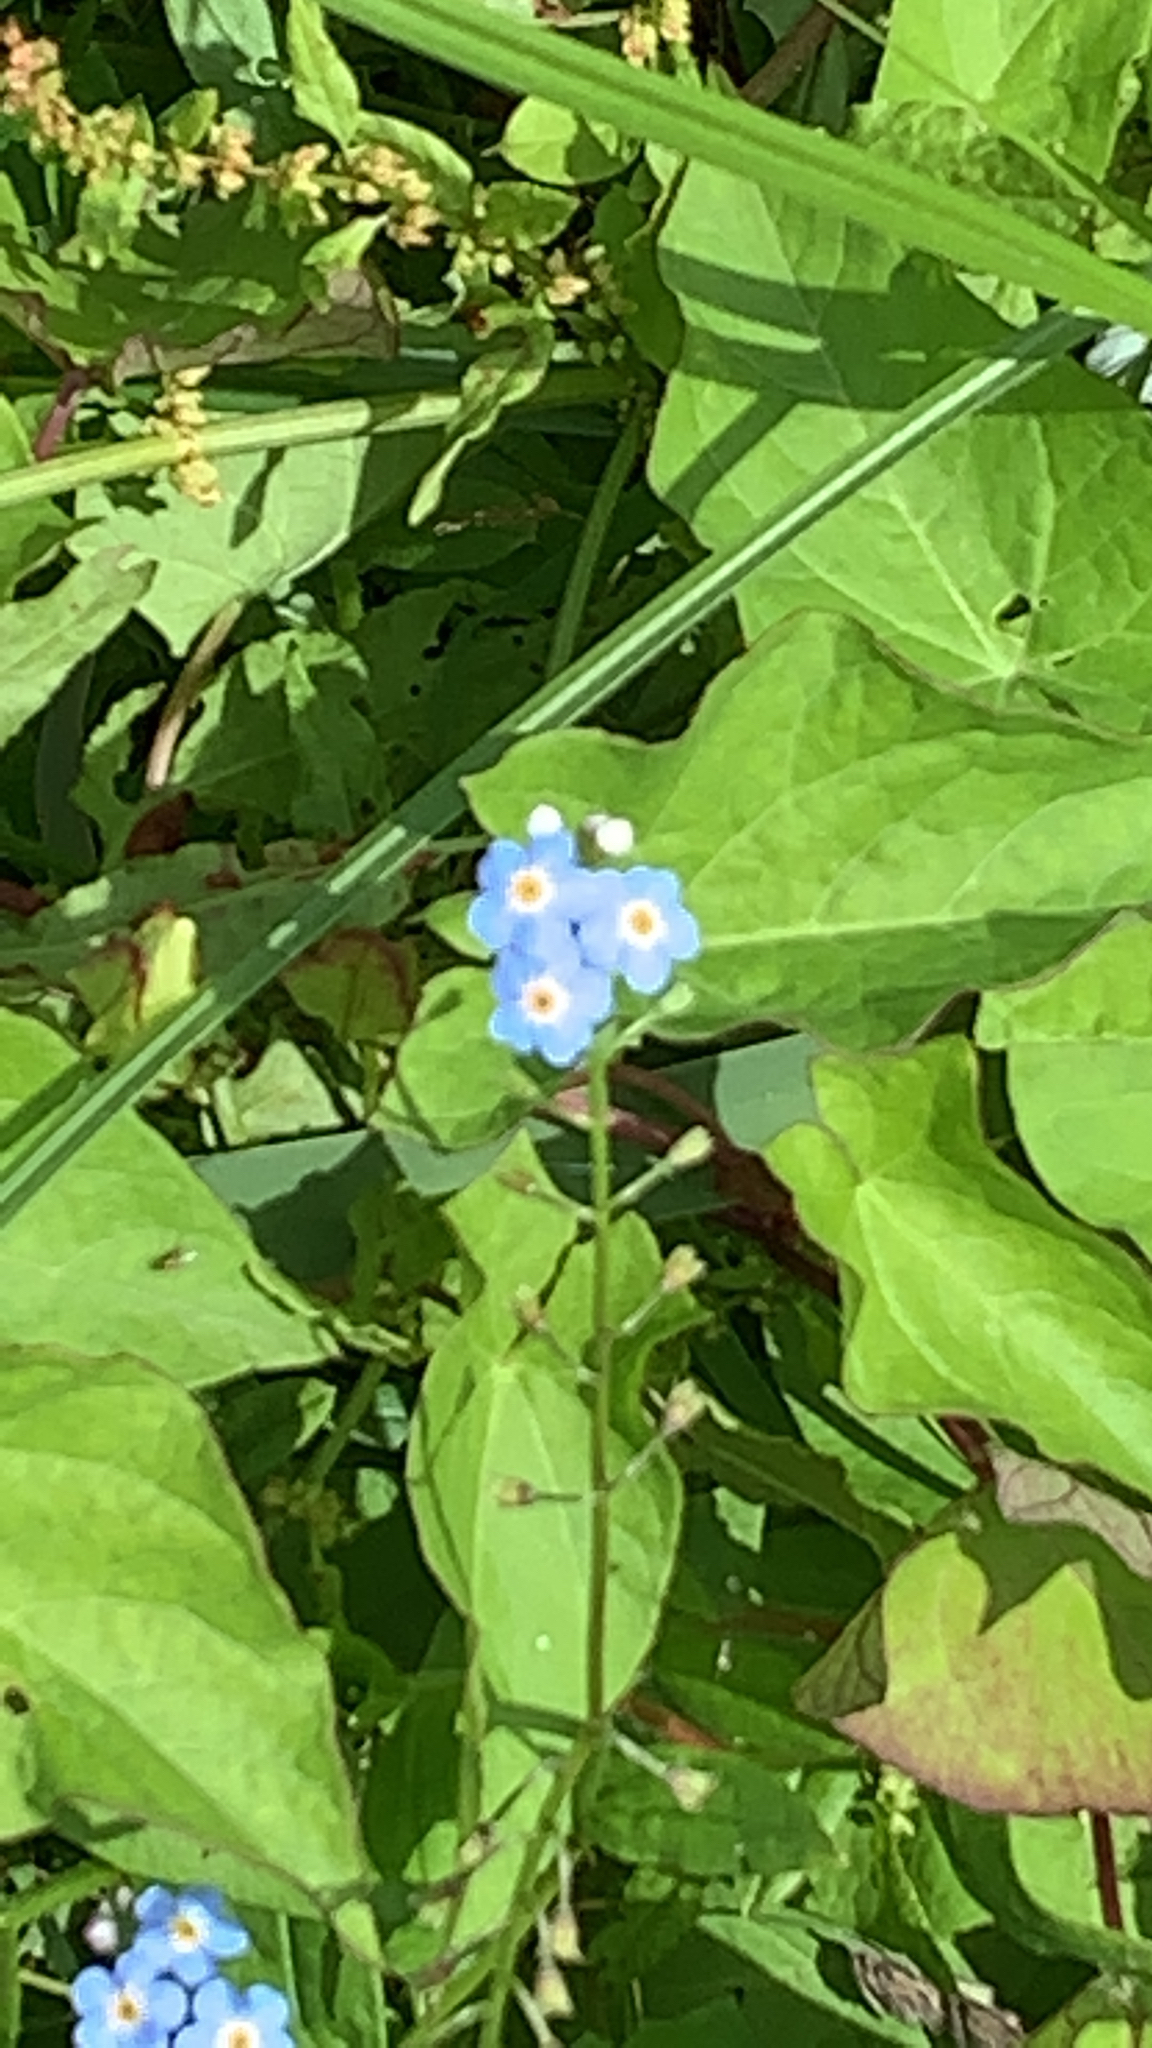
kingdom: Plantae
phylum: Tracheophyta
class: Magnoliopsida
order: Boraginales
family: Boraginaceae
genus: Myosotis
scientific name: Myosotis scorpioides
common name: Water forget-me-not
